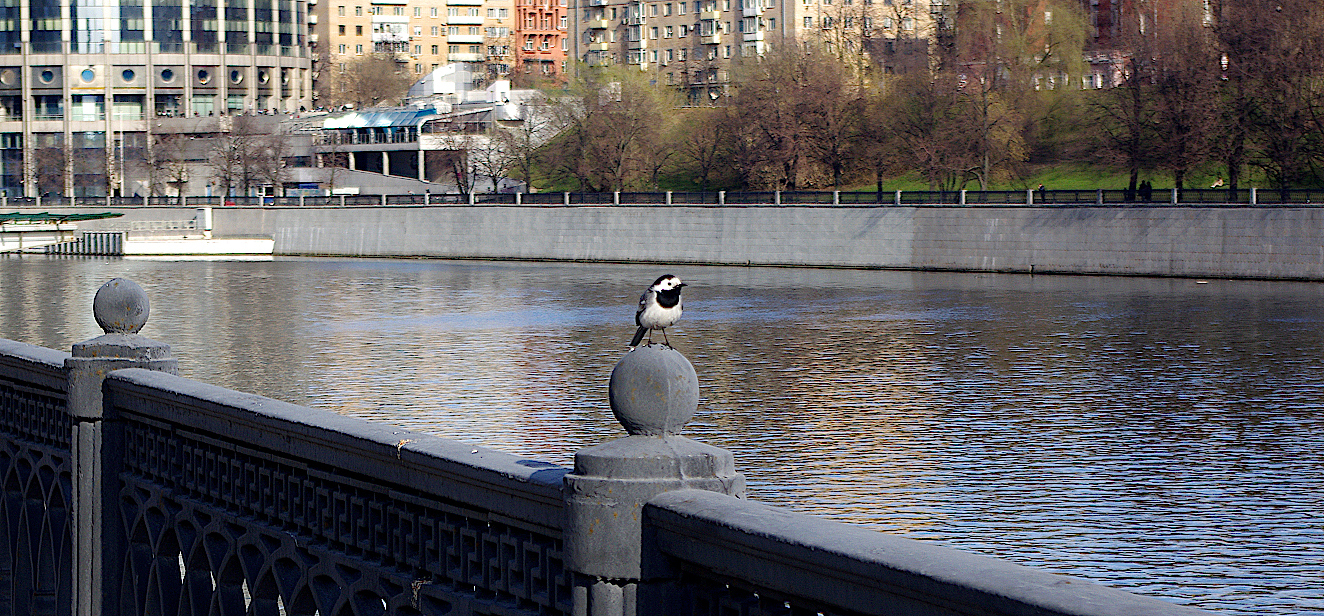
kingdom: Animalia
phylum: Chordata
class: Aves
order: Passeriformes
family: Motacillidae
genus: Motacilla
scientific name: Motacilla alba
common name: White wagtail
